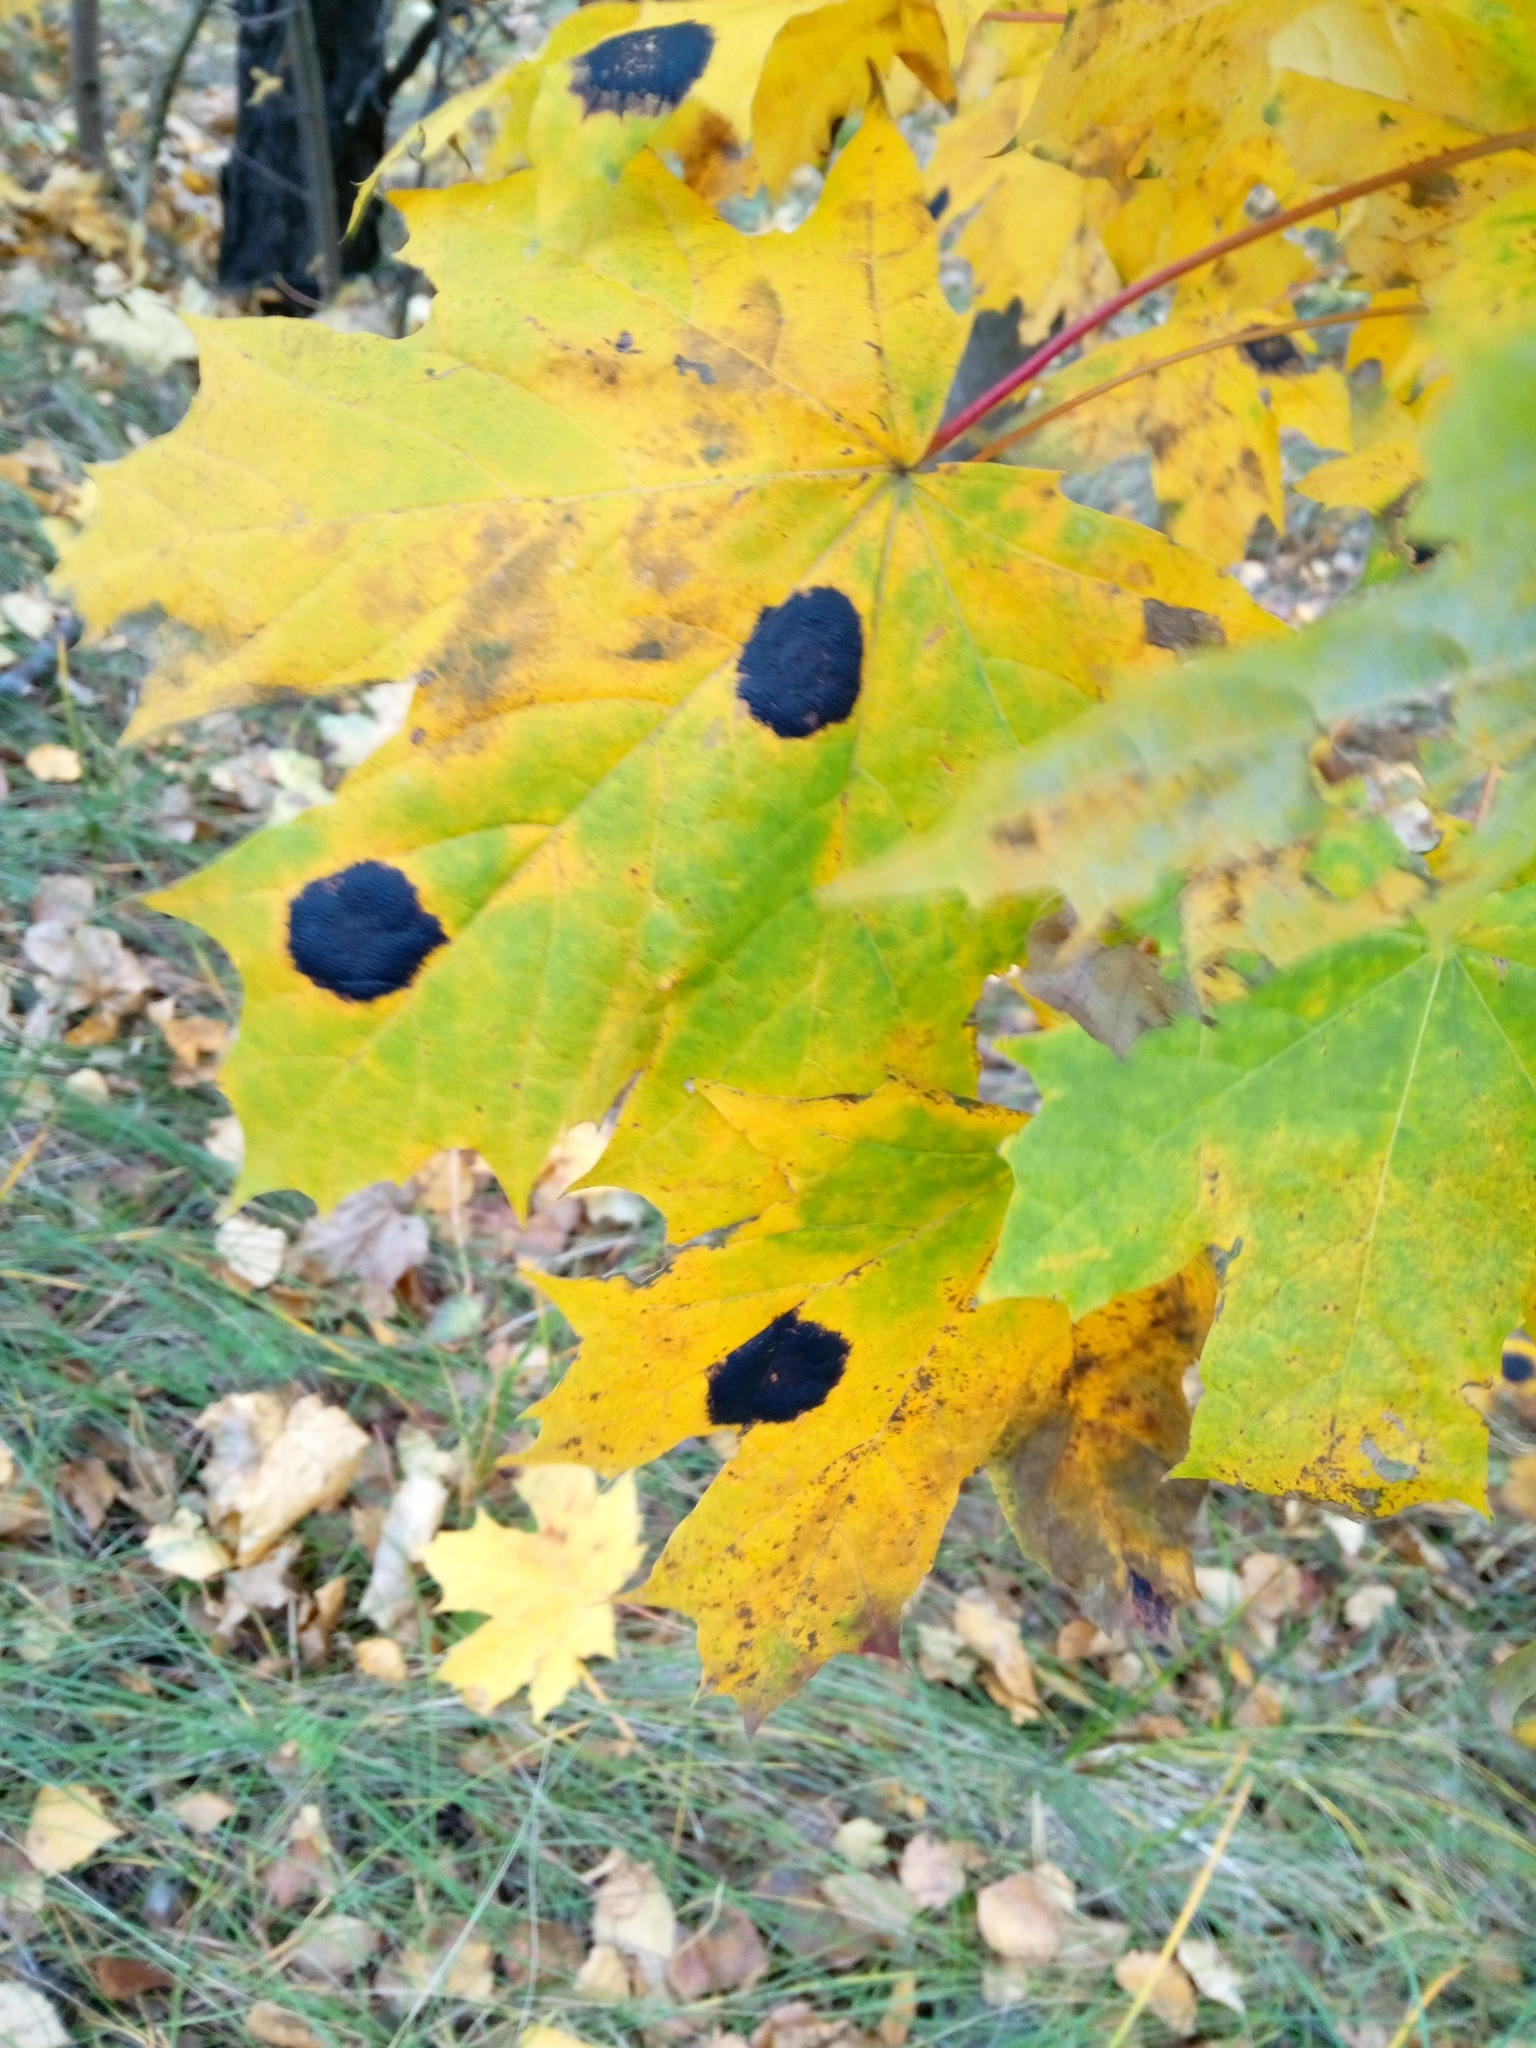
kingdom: Fungi
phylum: Ascomycota
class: Leotiomycetes
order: Rhytismatales
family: Rhytismataceae
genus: Rhytisma
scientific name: Rhytisma acerinum
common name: European tar spot
